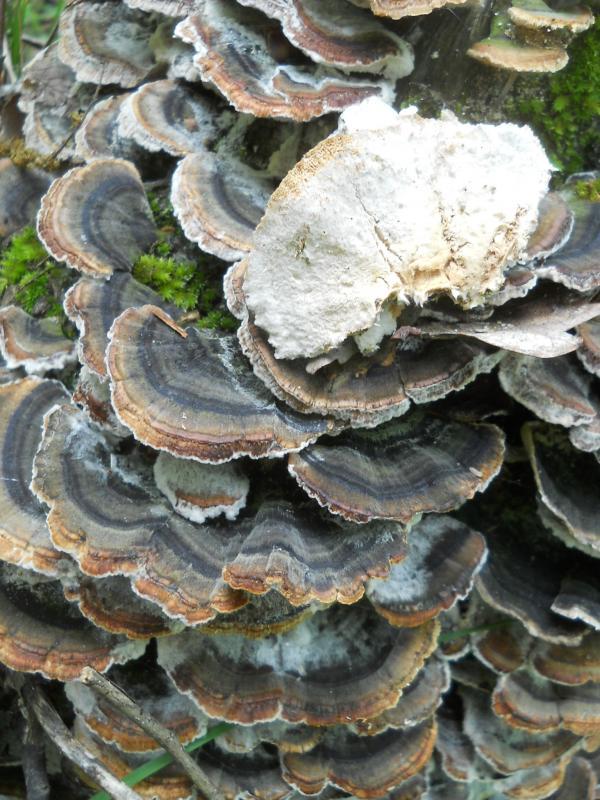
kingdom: Fungi
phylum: Basidiomycota
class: Agaricomycetes
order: Polyporales
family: Polyporaceae
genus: Trametes
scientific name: Trametes versicolor
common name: Turkeytail
